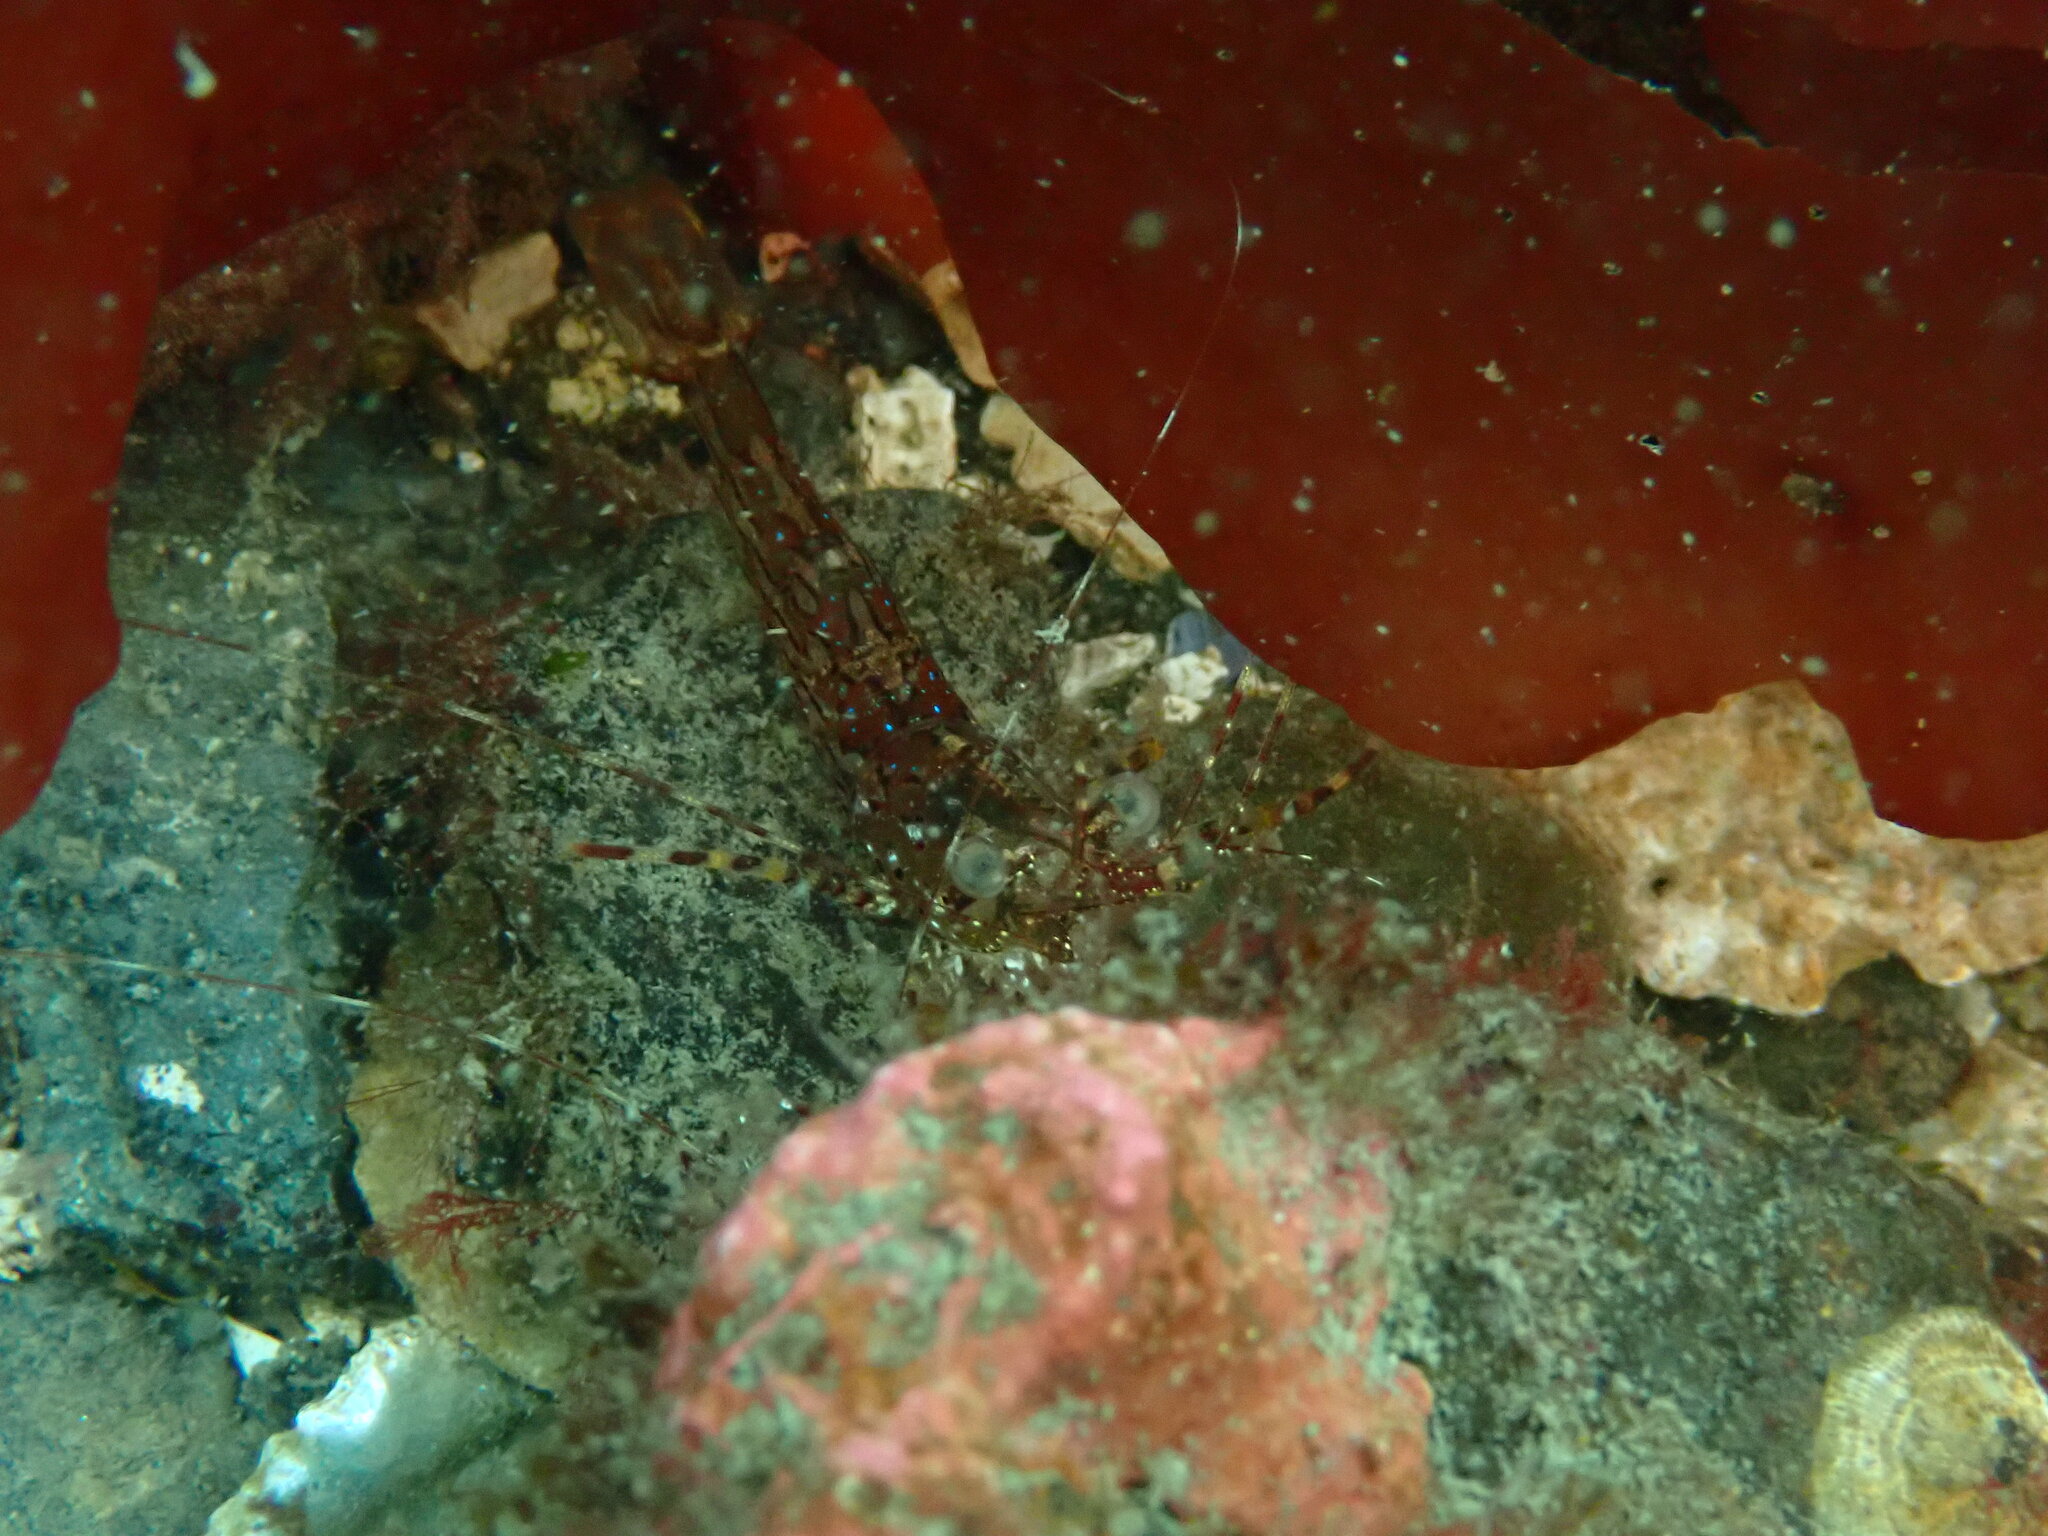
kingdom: Animalia
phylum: Arthropoda
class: Malacostraca
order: Decapoda
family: Pandalidae
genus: Pandalus
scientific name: Pandalus danae
